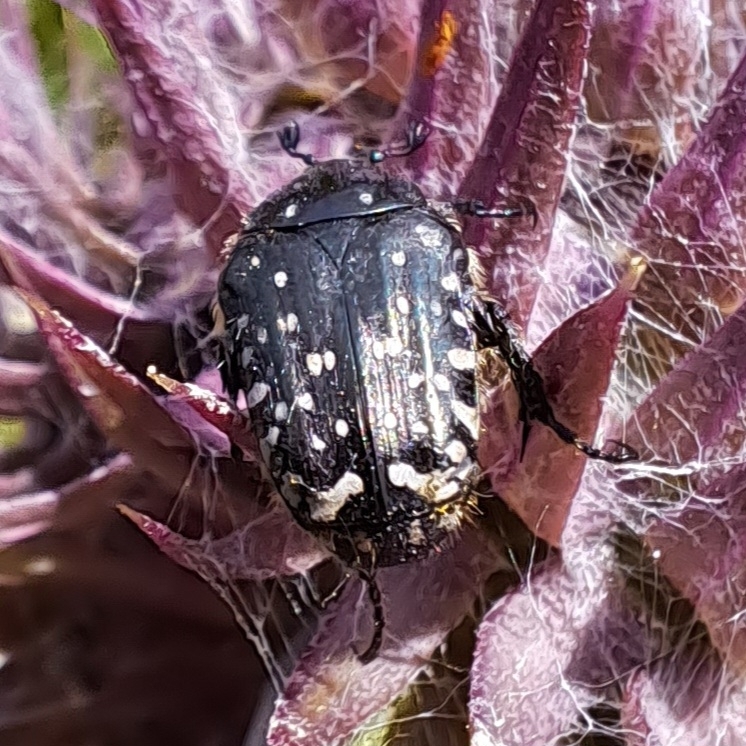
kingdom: Animalia
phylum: Arthropoda
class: Insecta
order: Coleoptera
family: Scarabaeidae
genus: Oxythyrea
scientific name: Oxythyrea funesta
